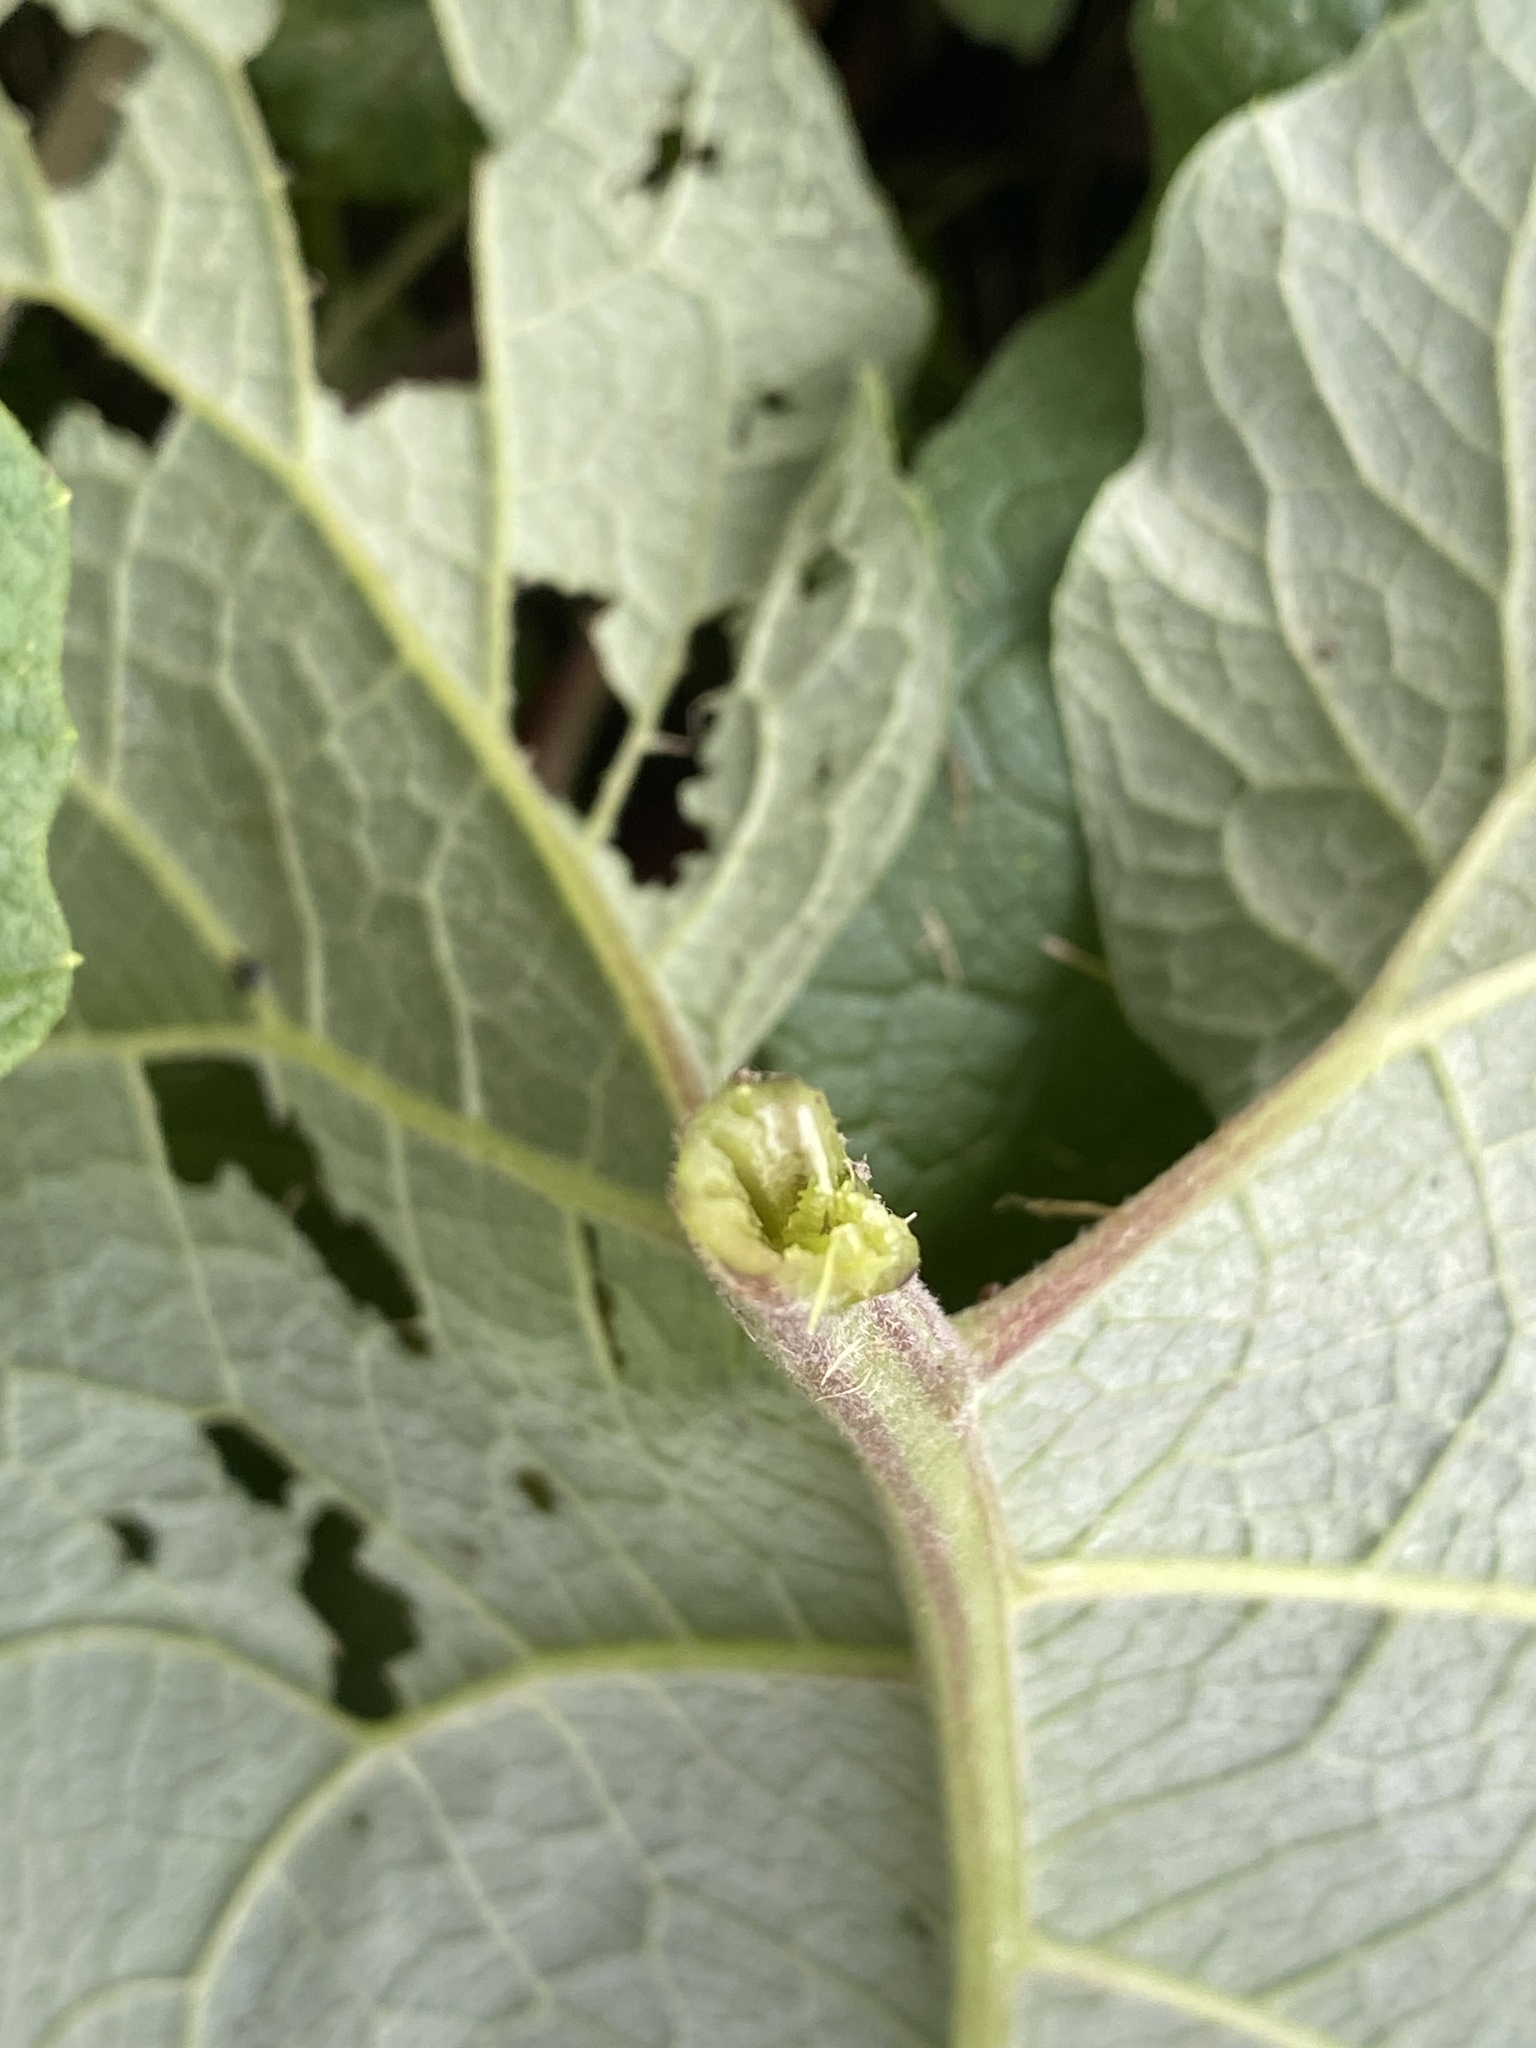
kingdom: Plantae
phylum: Tracheophyta
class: Magnoliopsida
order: Asterales
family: Asteraceae
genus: Arctium
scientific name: Arctium minus
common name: Lesser burdock
